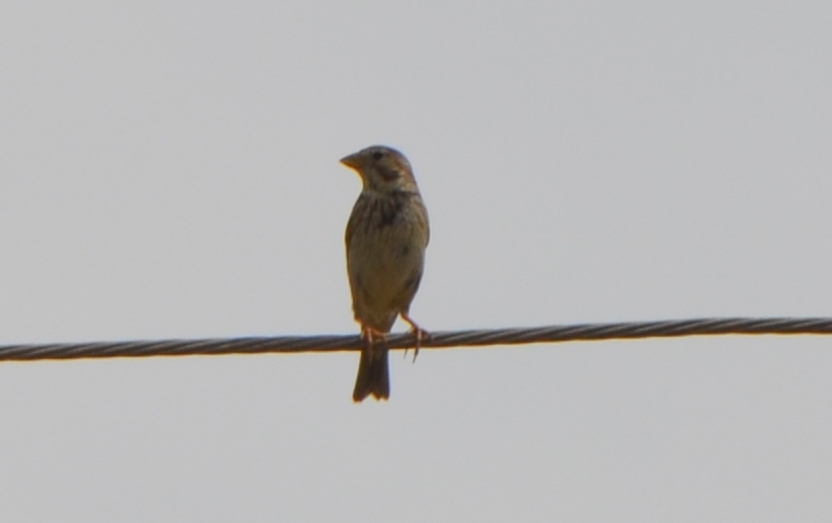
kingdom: Animalia
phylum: Chordata
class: Aves
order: Passeriformes
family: Emberizidae
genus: Emberiza
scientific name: Emberiza calandra
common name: Corn bunting
